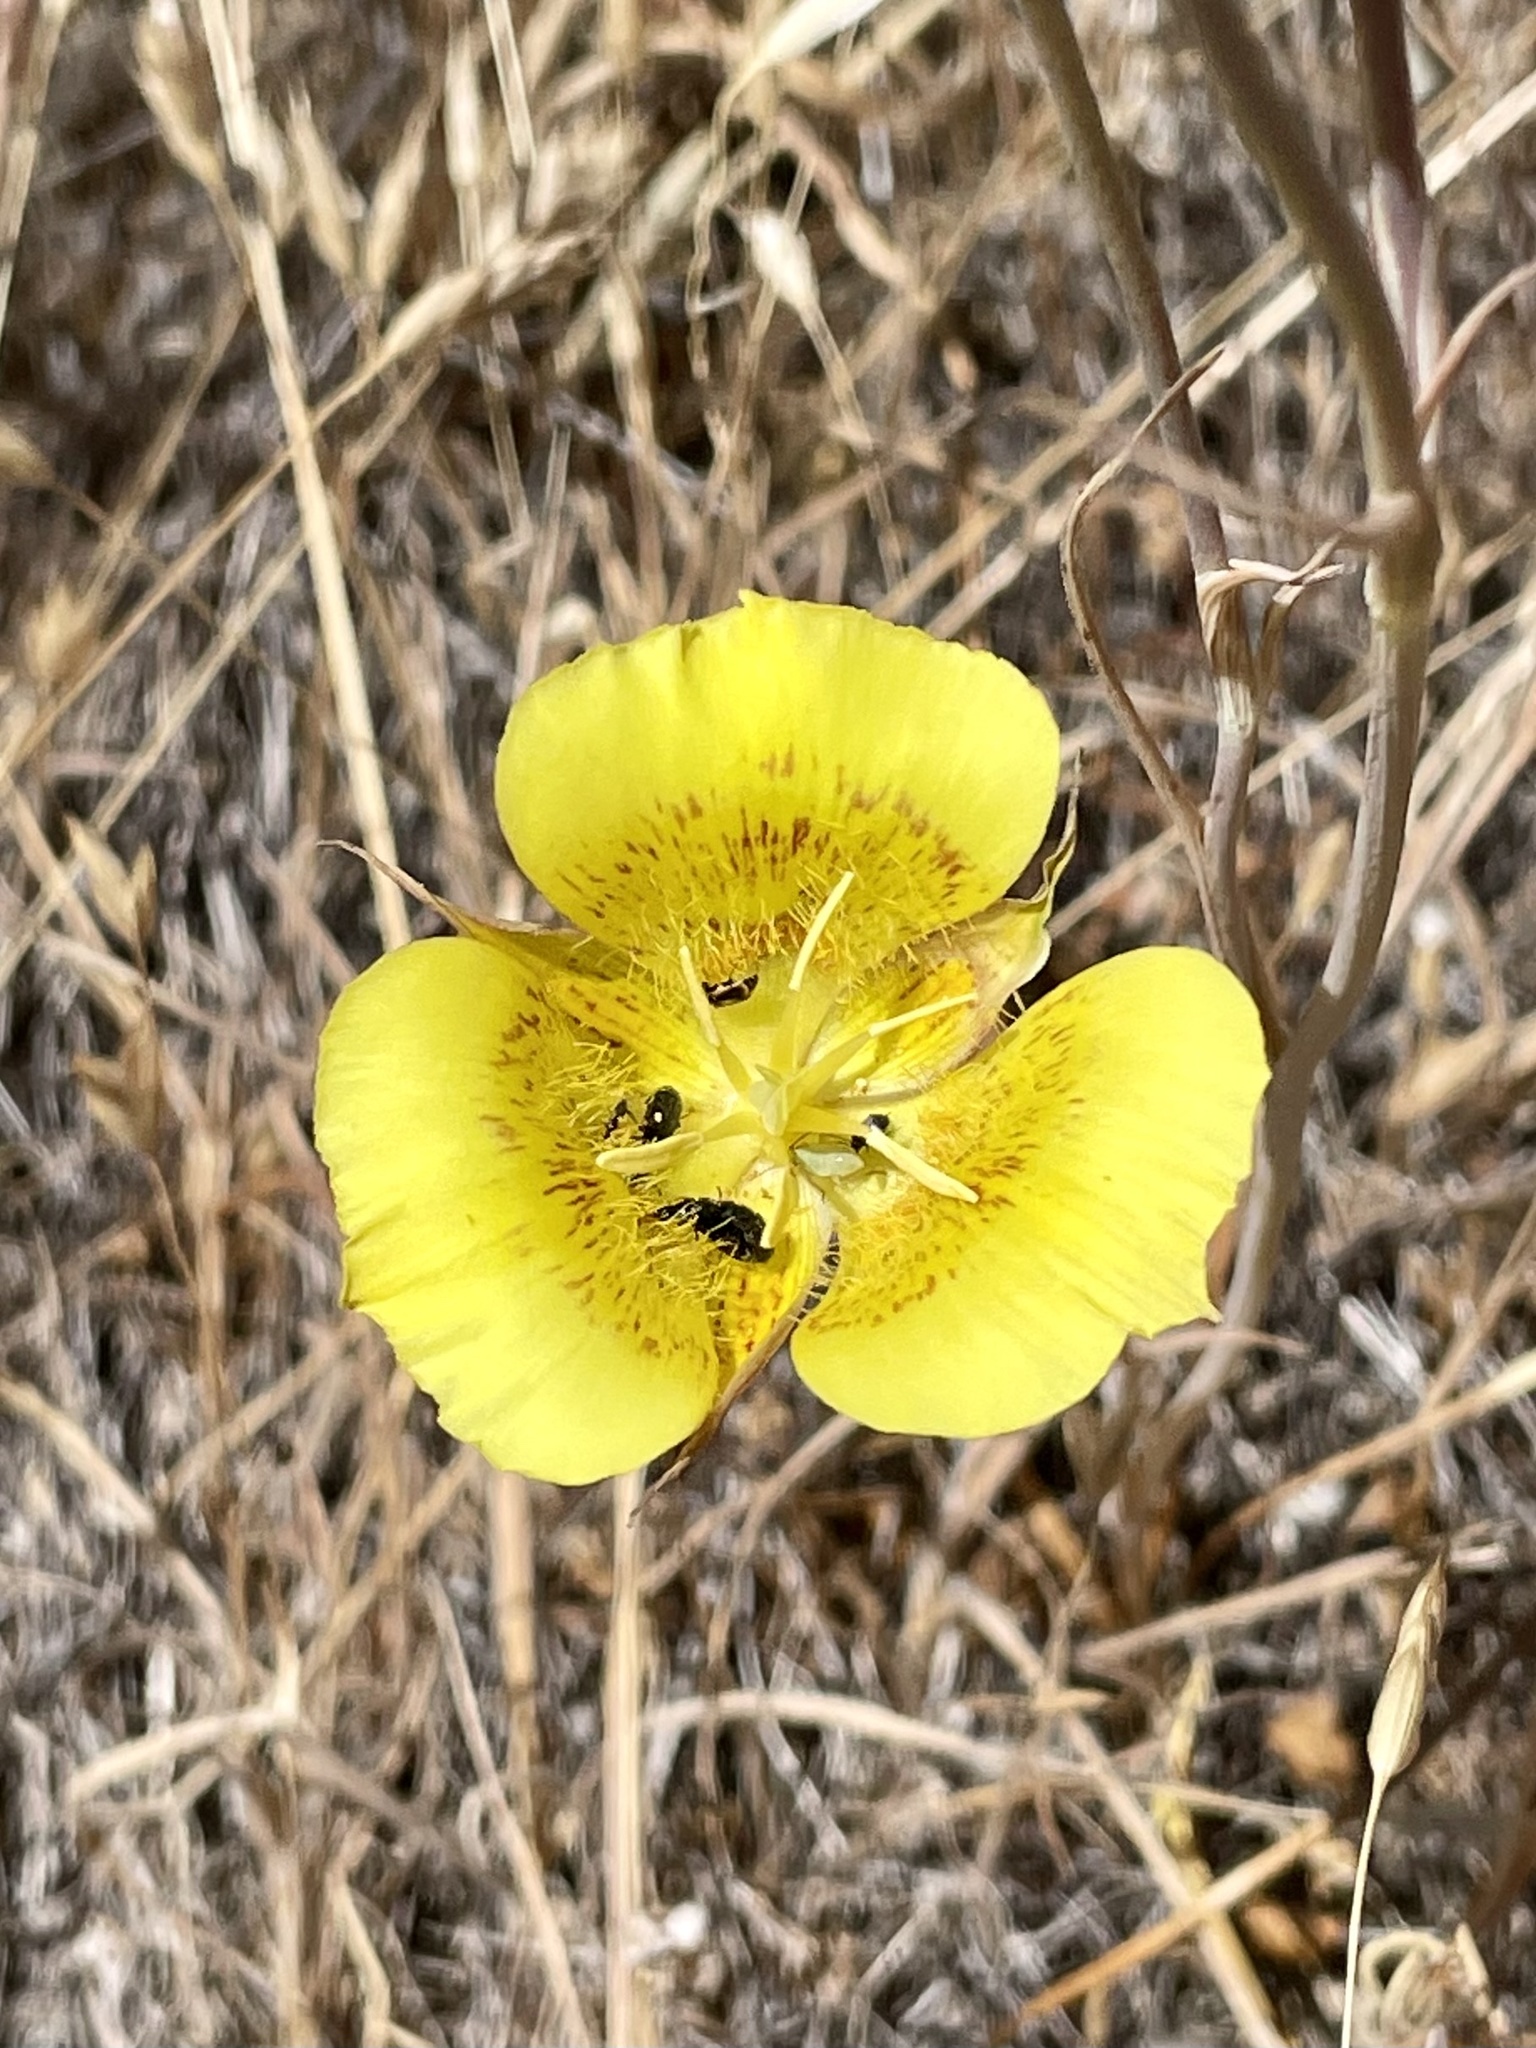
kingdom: Plantae
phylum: Tracheophyta
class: Liliopsida
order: Liliales
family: Liliaceae
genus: Calochortus
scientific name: Calochortus luteus
